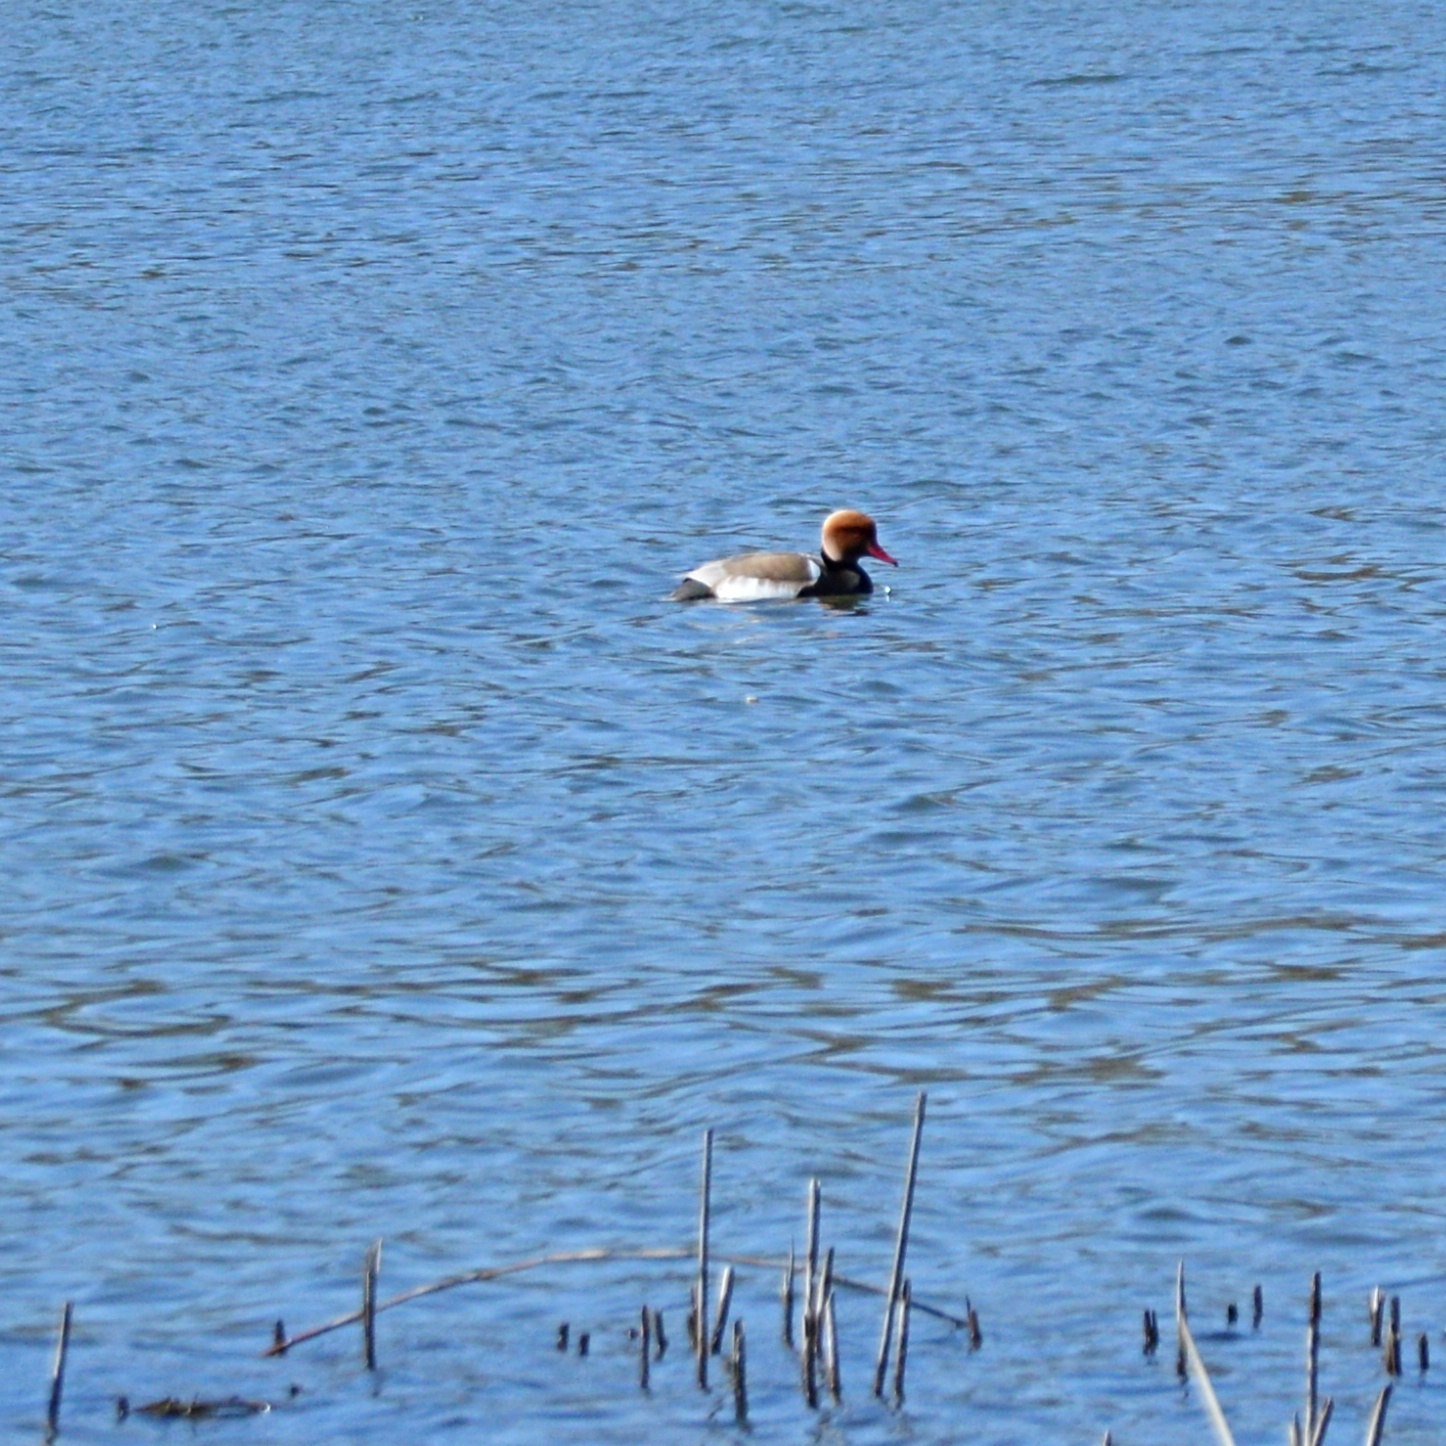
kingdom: Animalia
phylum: Chordata
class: Aves
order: Anseriformes
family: Anatidae
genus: Netta
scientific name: Netta rufina
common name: Red-crested pochard
